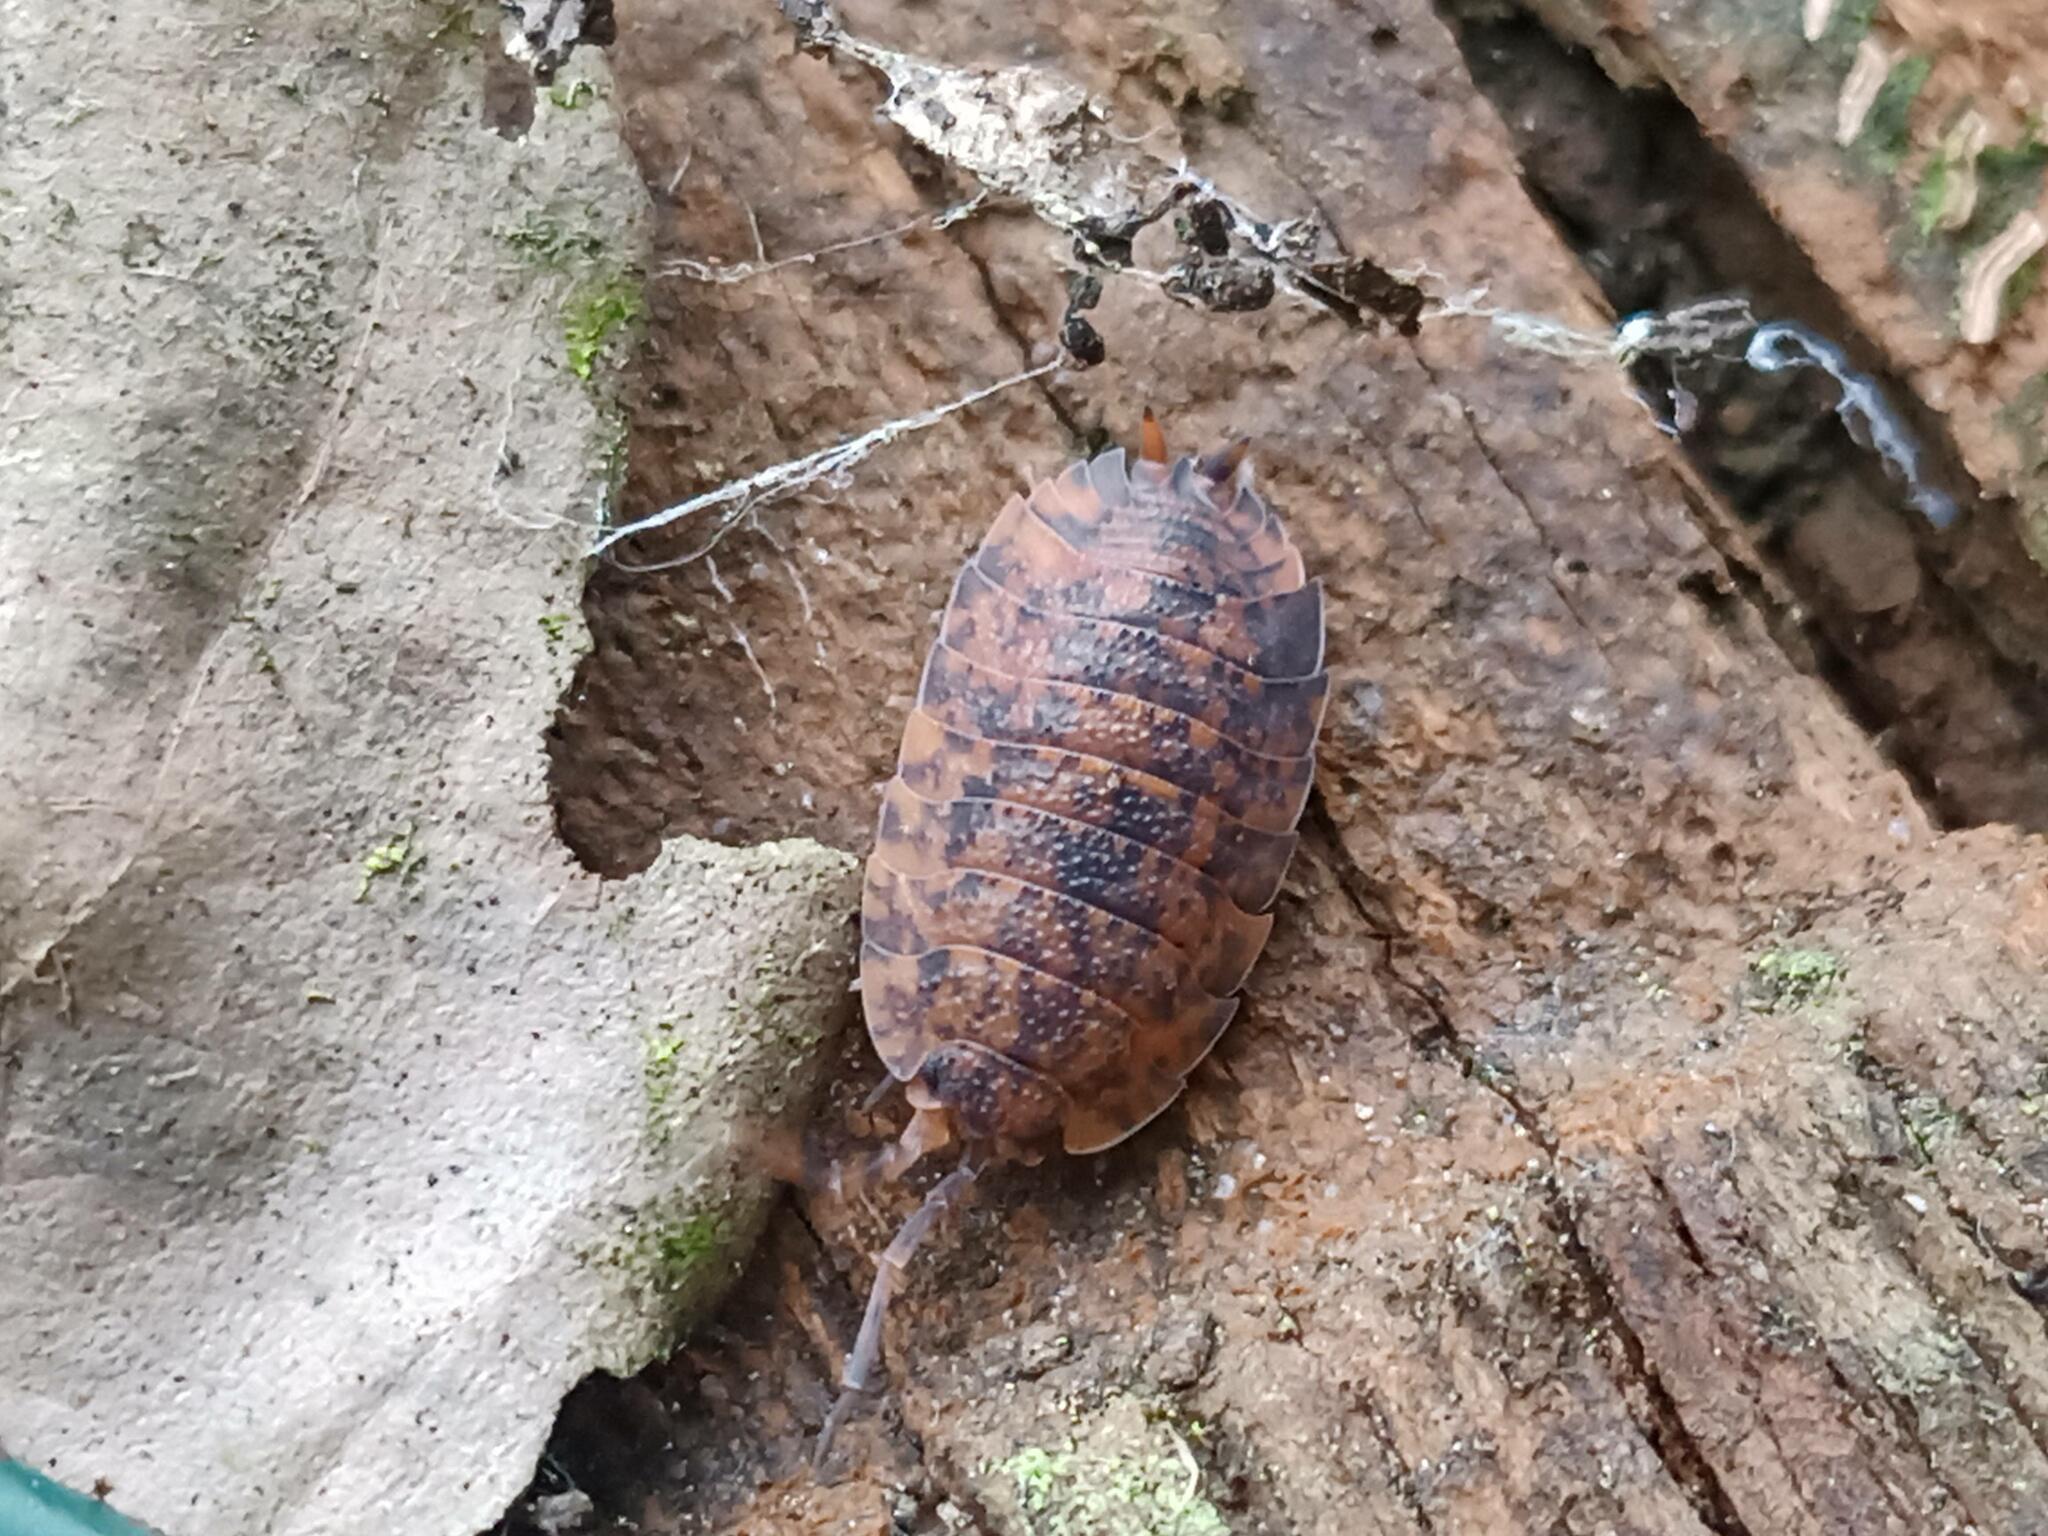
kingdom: Animalia
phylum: Arthropoda
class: Malacostraca
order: Isopoda
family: Porcellionidae
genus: Porcellio
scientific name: Porcellio scaber
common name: Common rough woodlouse
